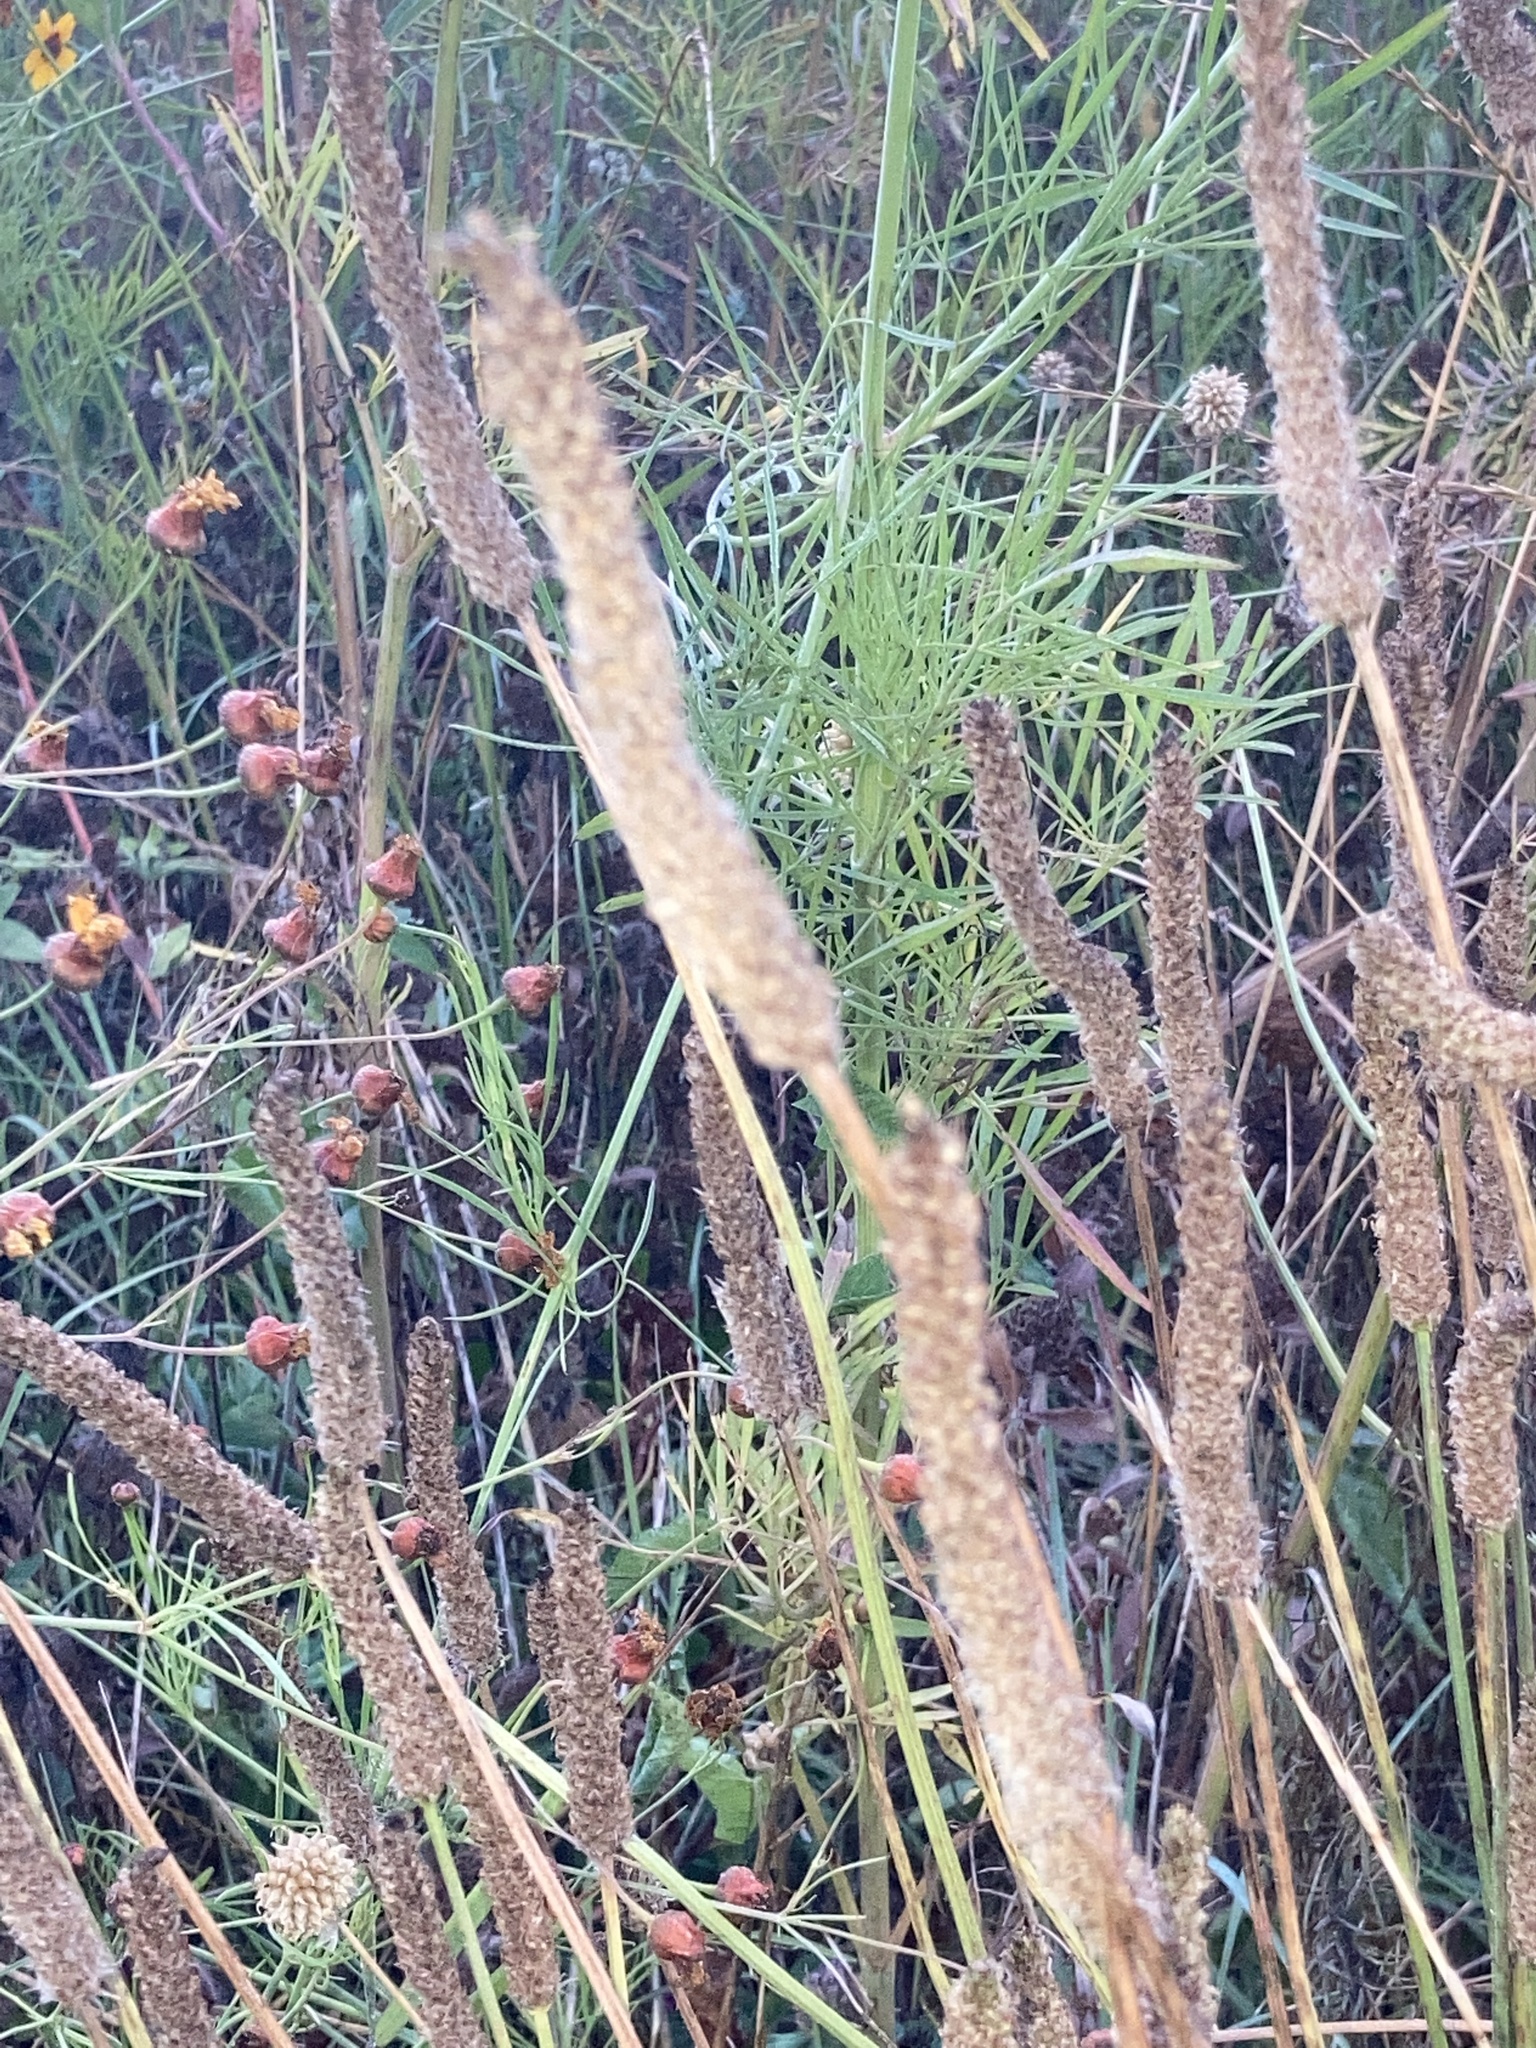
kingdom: Plantae
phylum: Tracheophyta
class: Magnoliopsida
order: Lamiales
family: Plantaginaceae
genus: Plantago
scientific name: Plantago lanceolata
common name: Ribwort plantain
